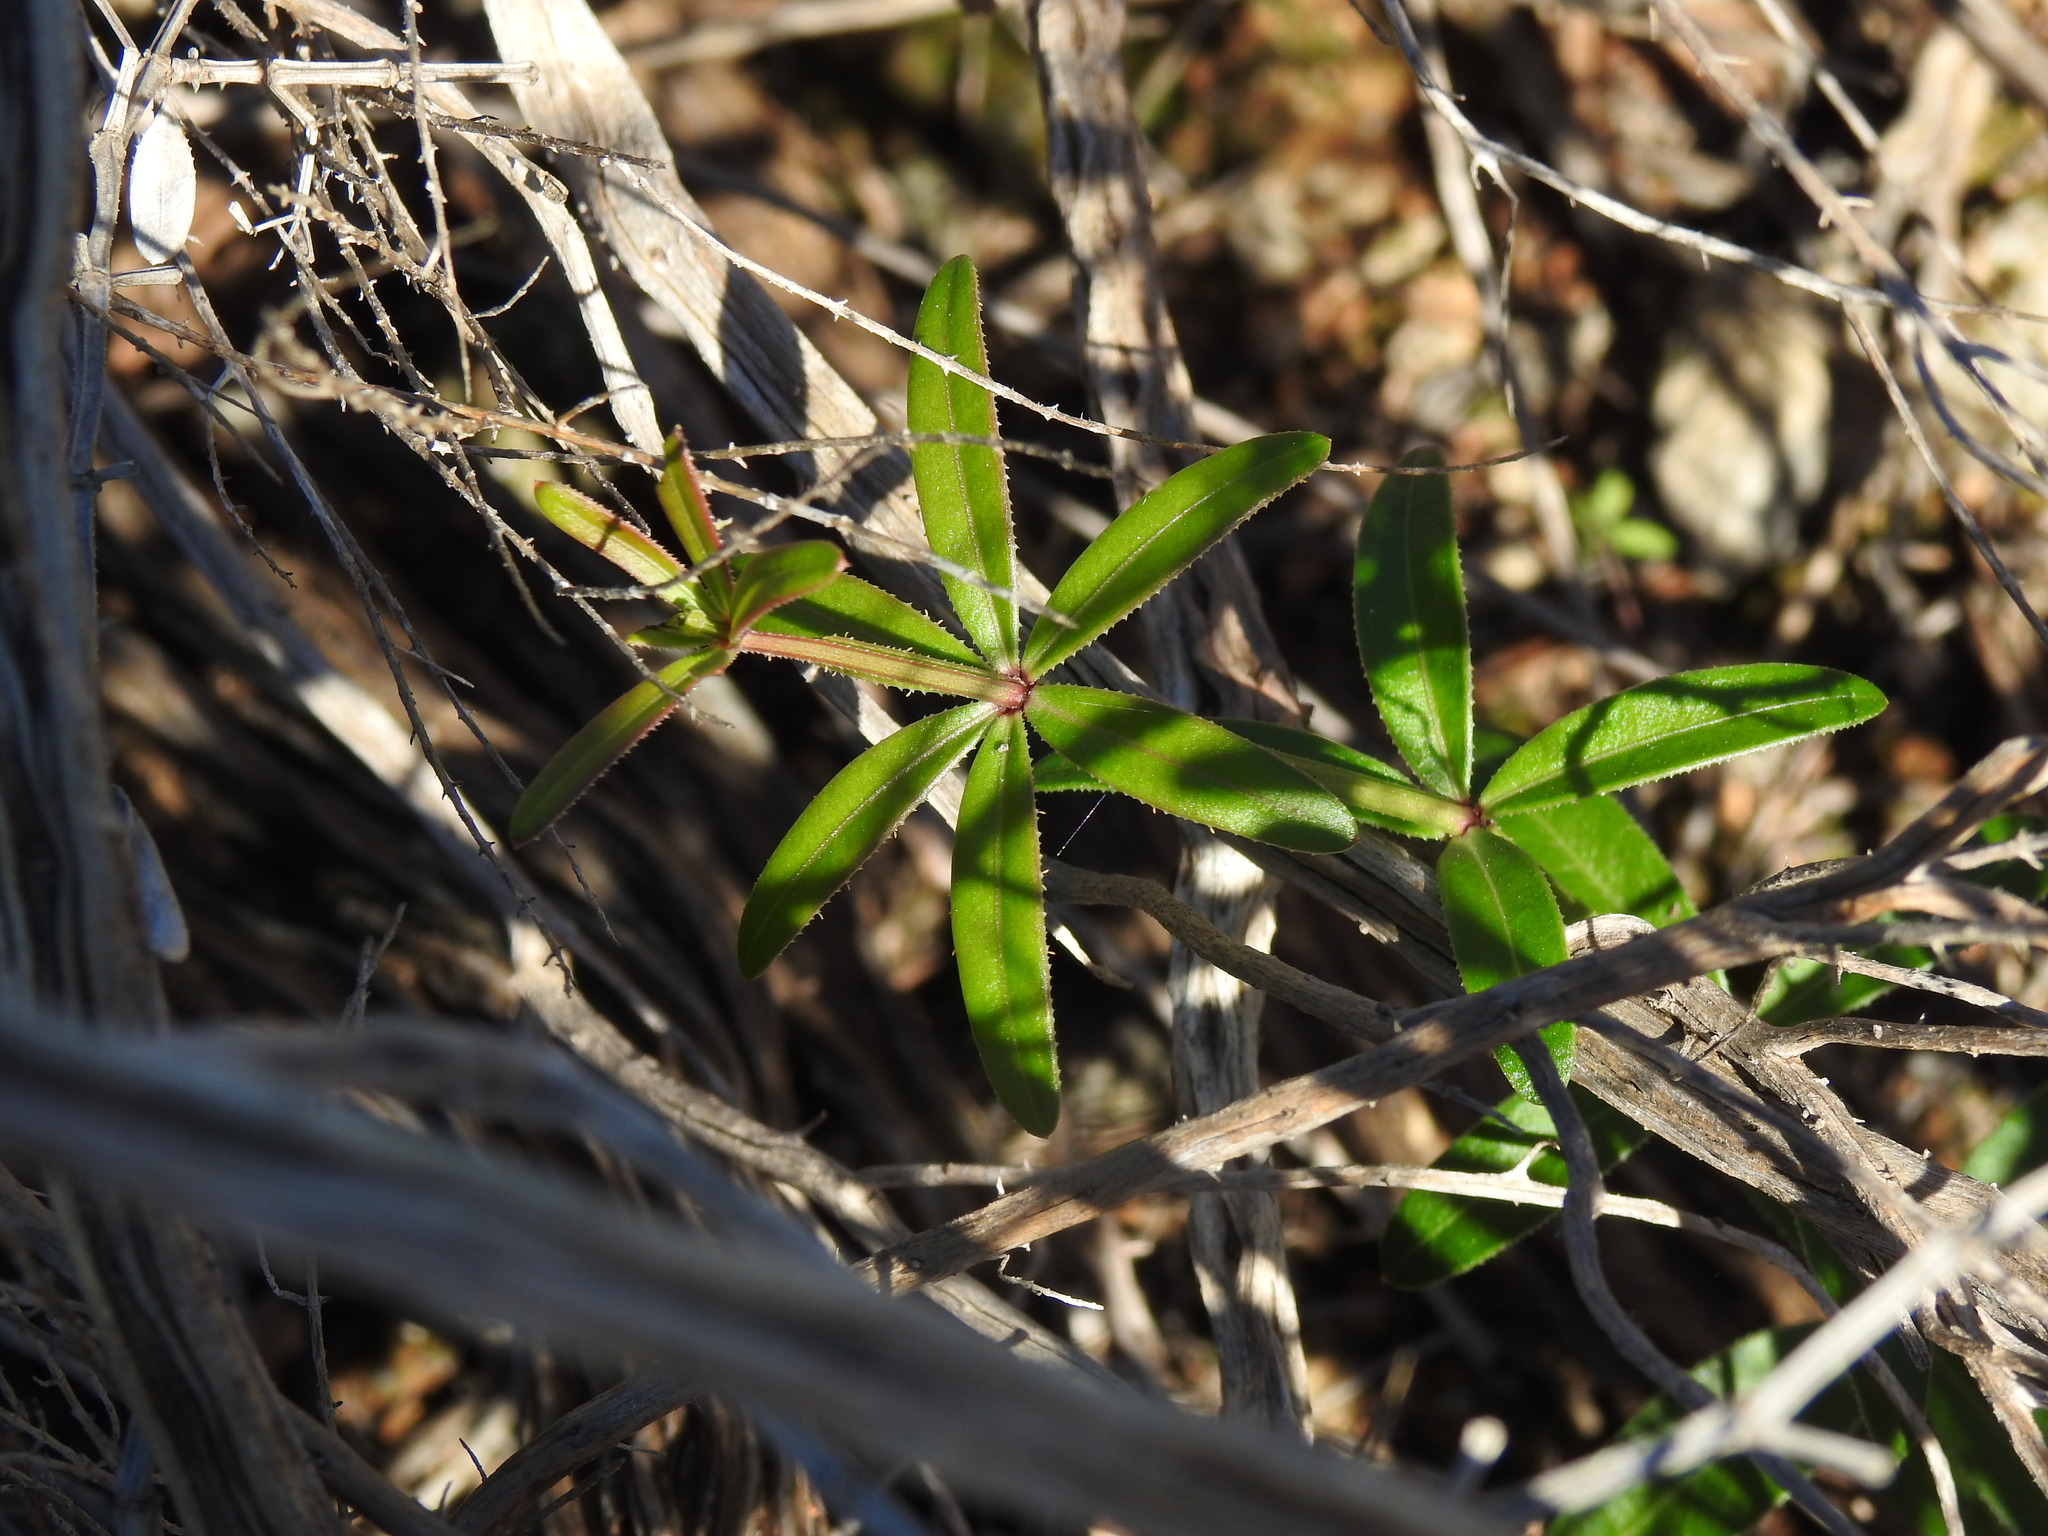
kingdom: Plantae
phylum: Tracheophyta
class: Magnoliopsida
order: Gentianales
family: Rubiaceae
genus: Rubia
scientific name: Rubia peregrina
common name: Wild madder
